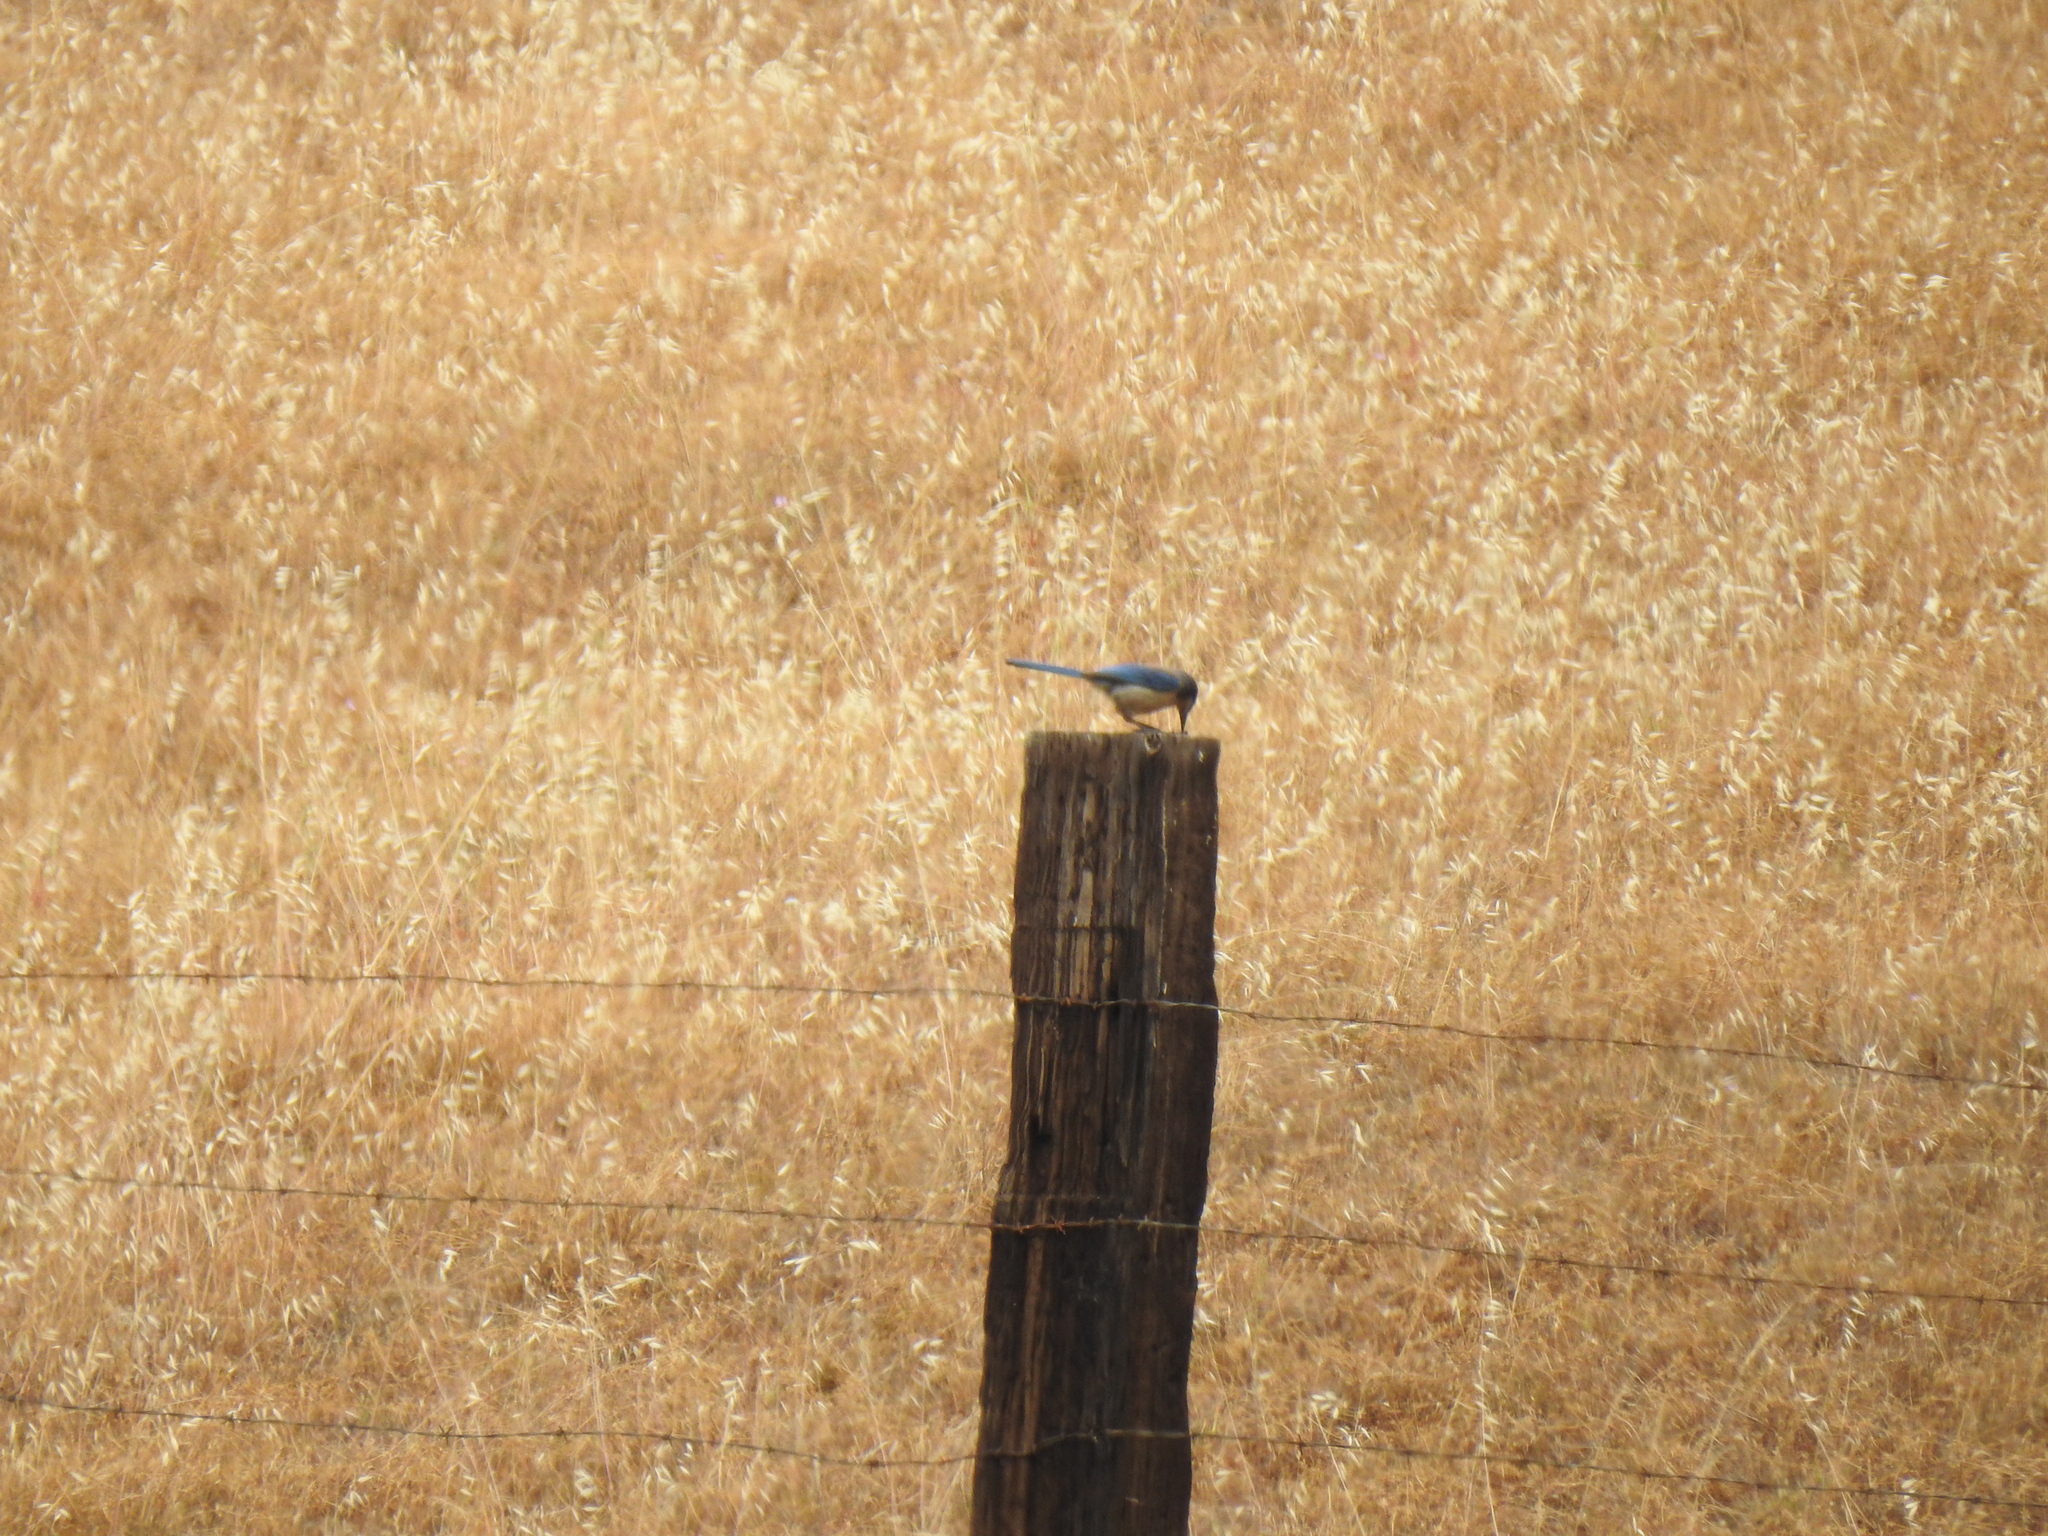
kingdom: Animalia
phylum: Chordata
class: Aves
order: Passeriformes
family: Corvidae
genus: Aphelocoma
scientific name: Aphelocoma californica
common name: California scrub-jay
